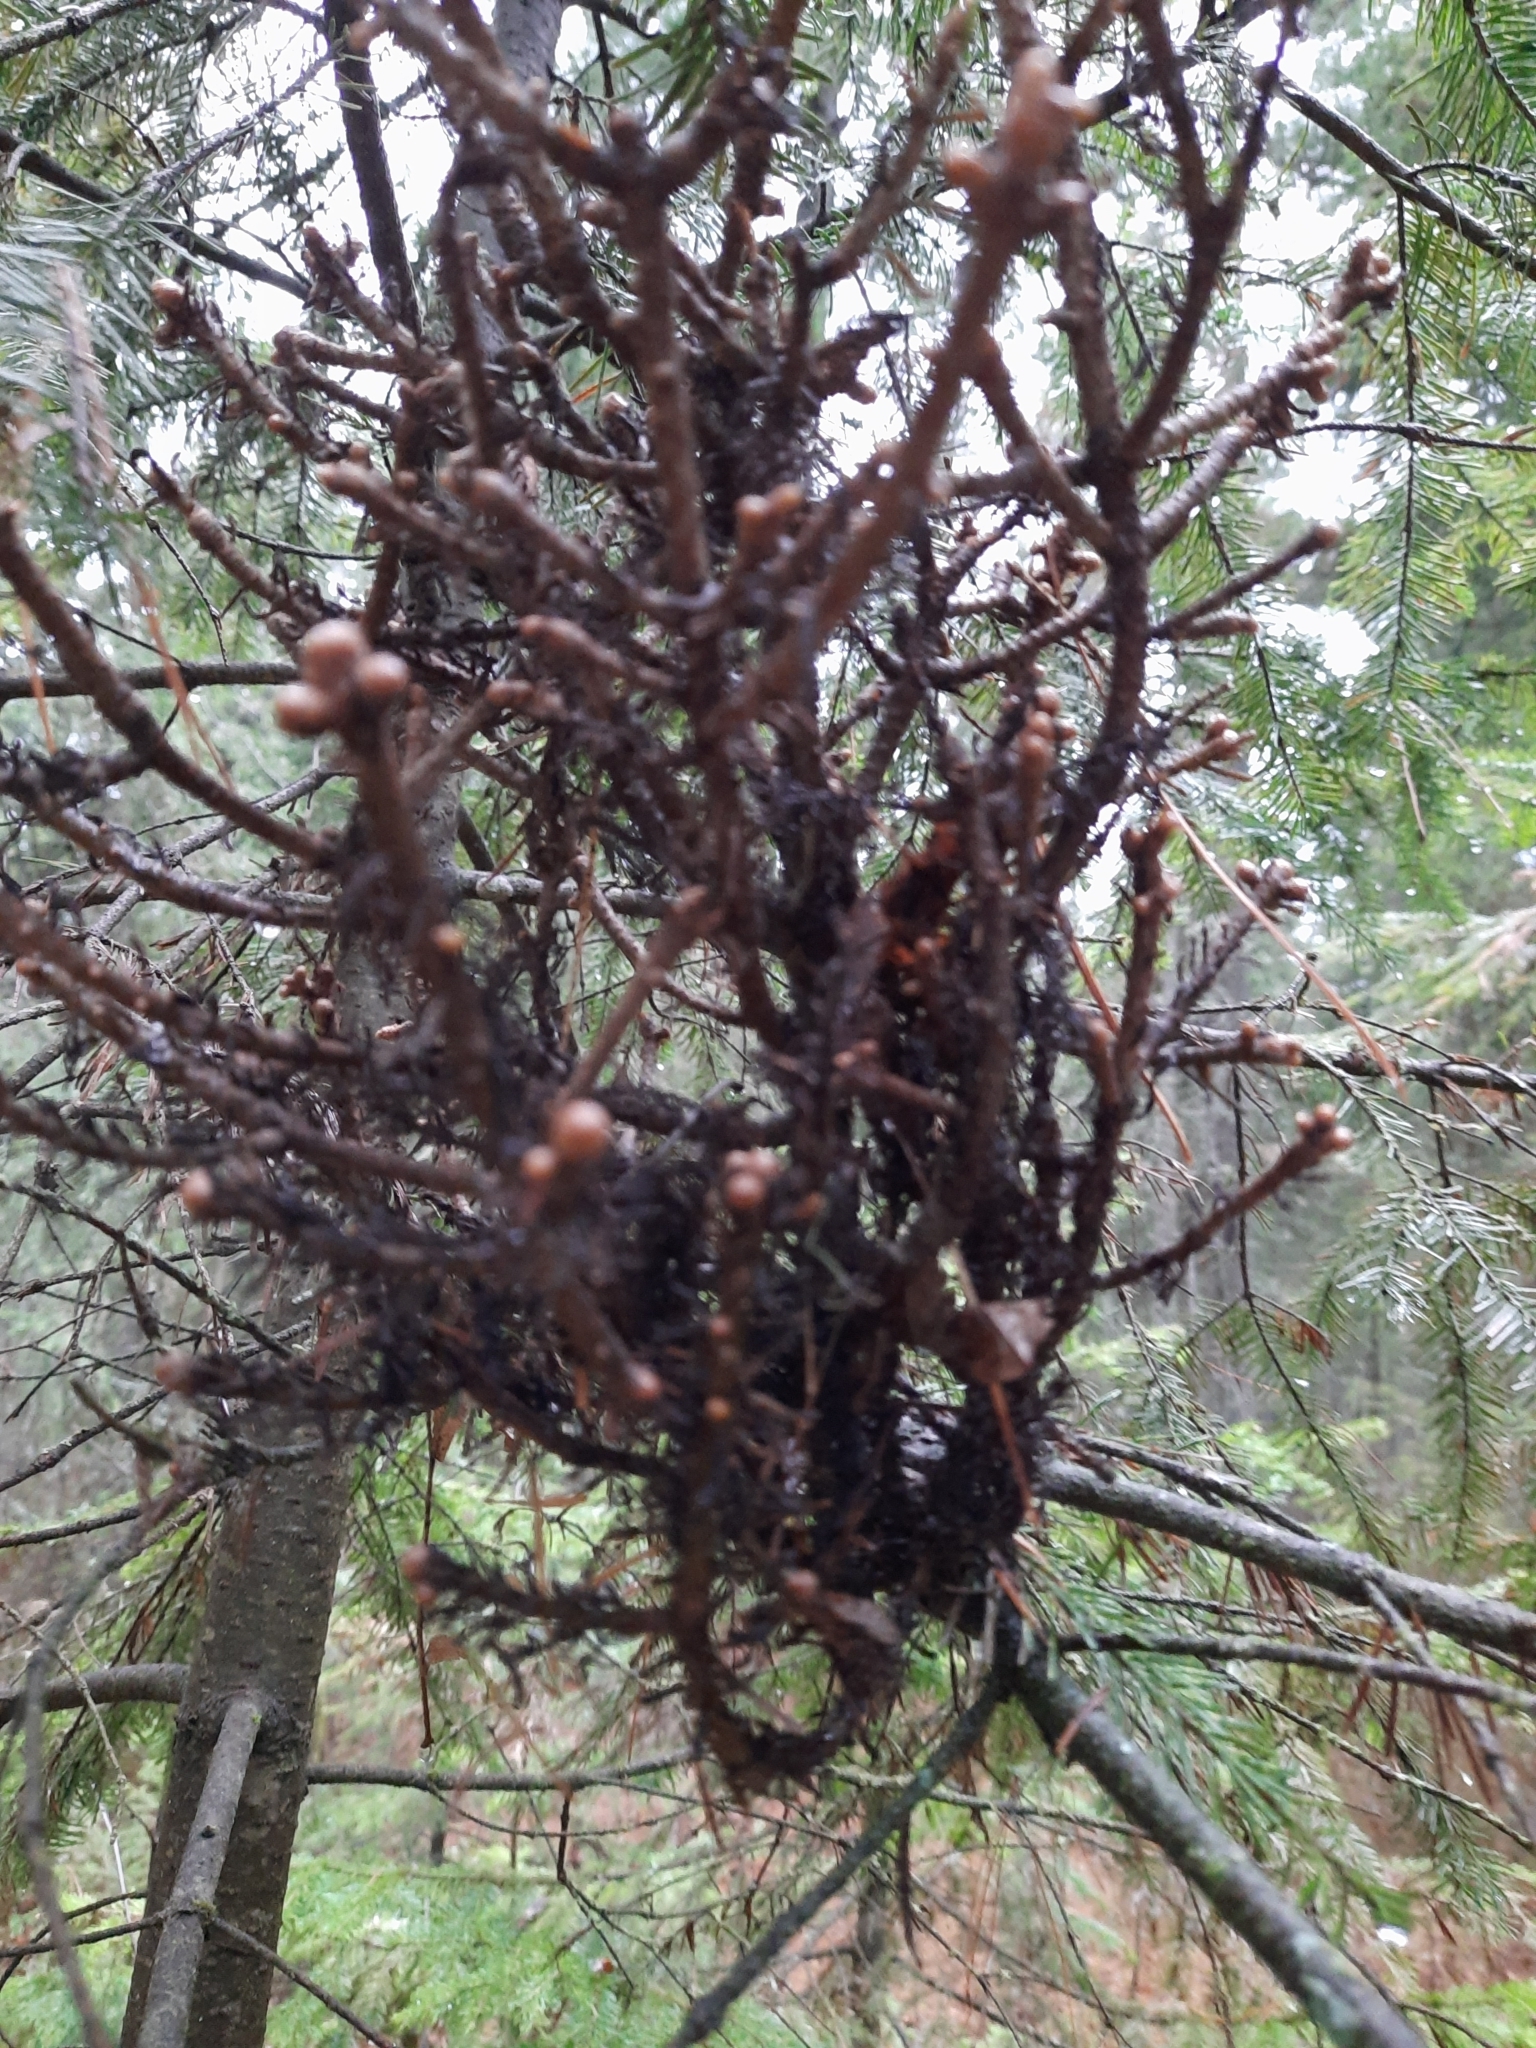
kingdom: Fungi
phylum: Basidiomycota
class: Pucciniomycetes
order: Pucciniales
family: Pucciniastraceae
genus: Melampsorella
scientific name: Melampsorella elatina
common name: Fir broom rust
